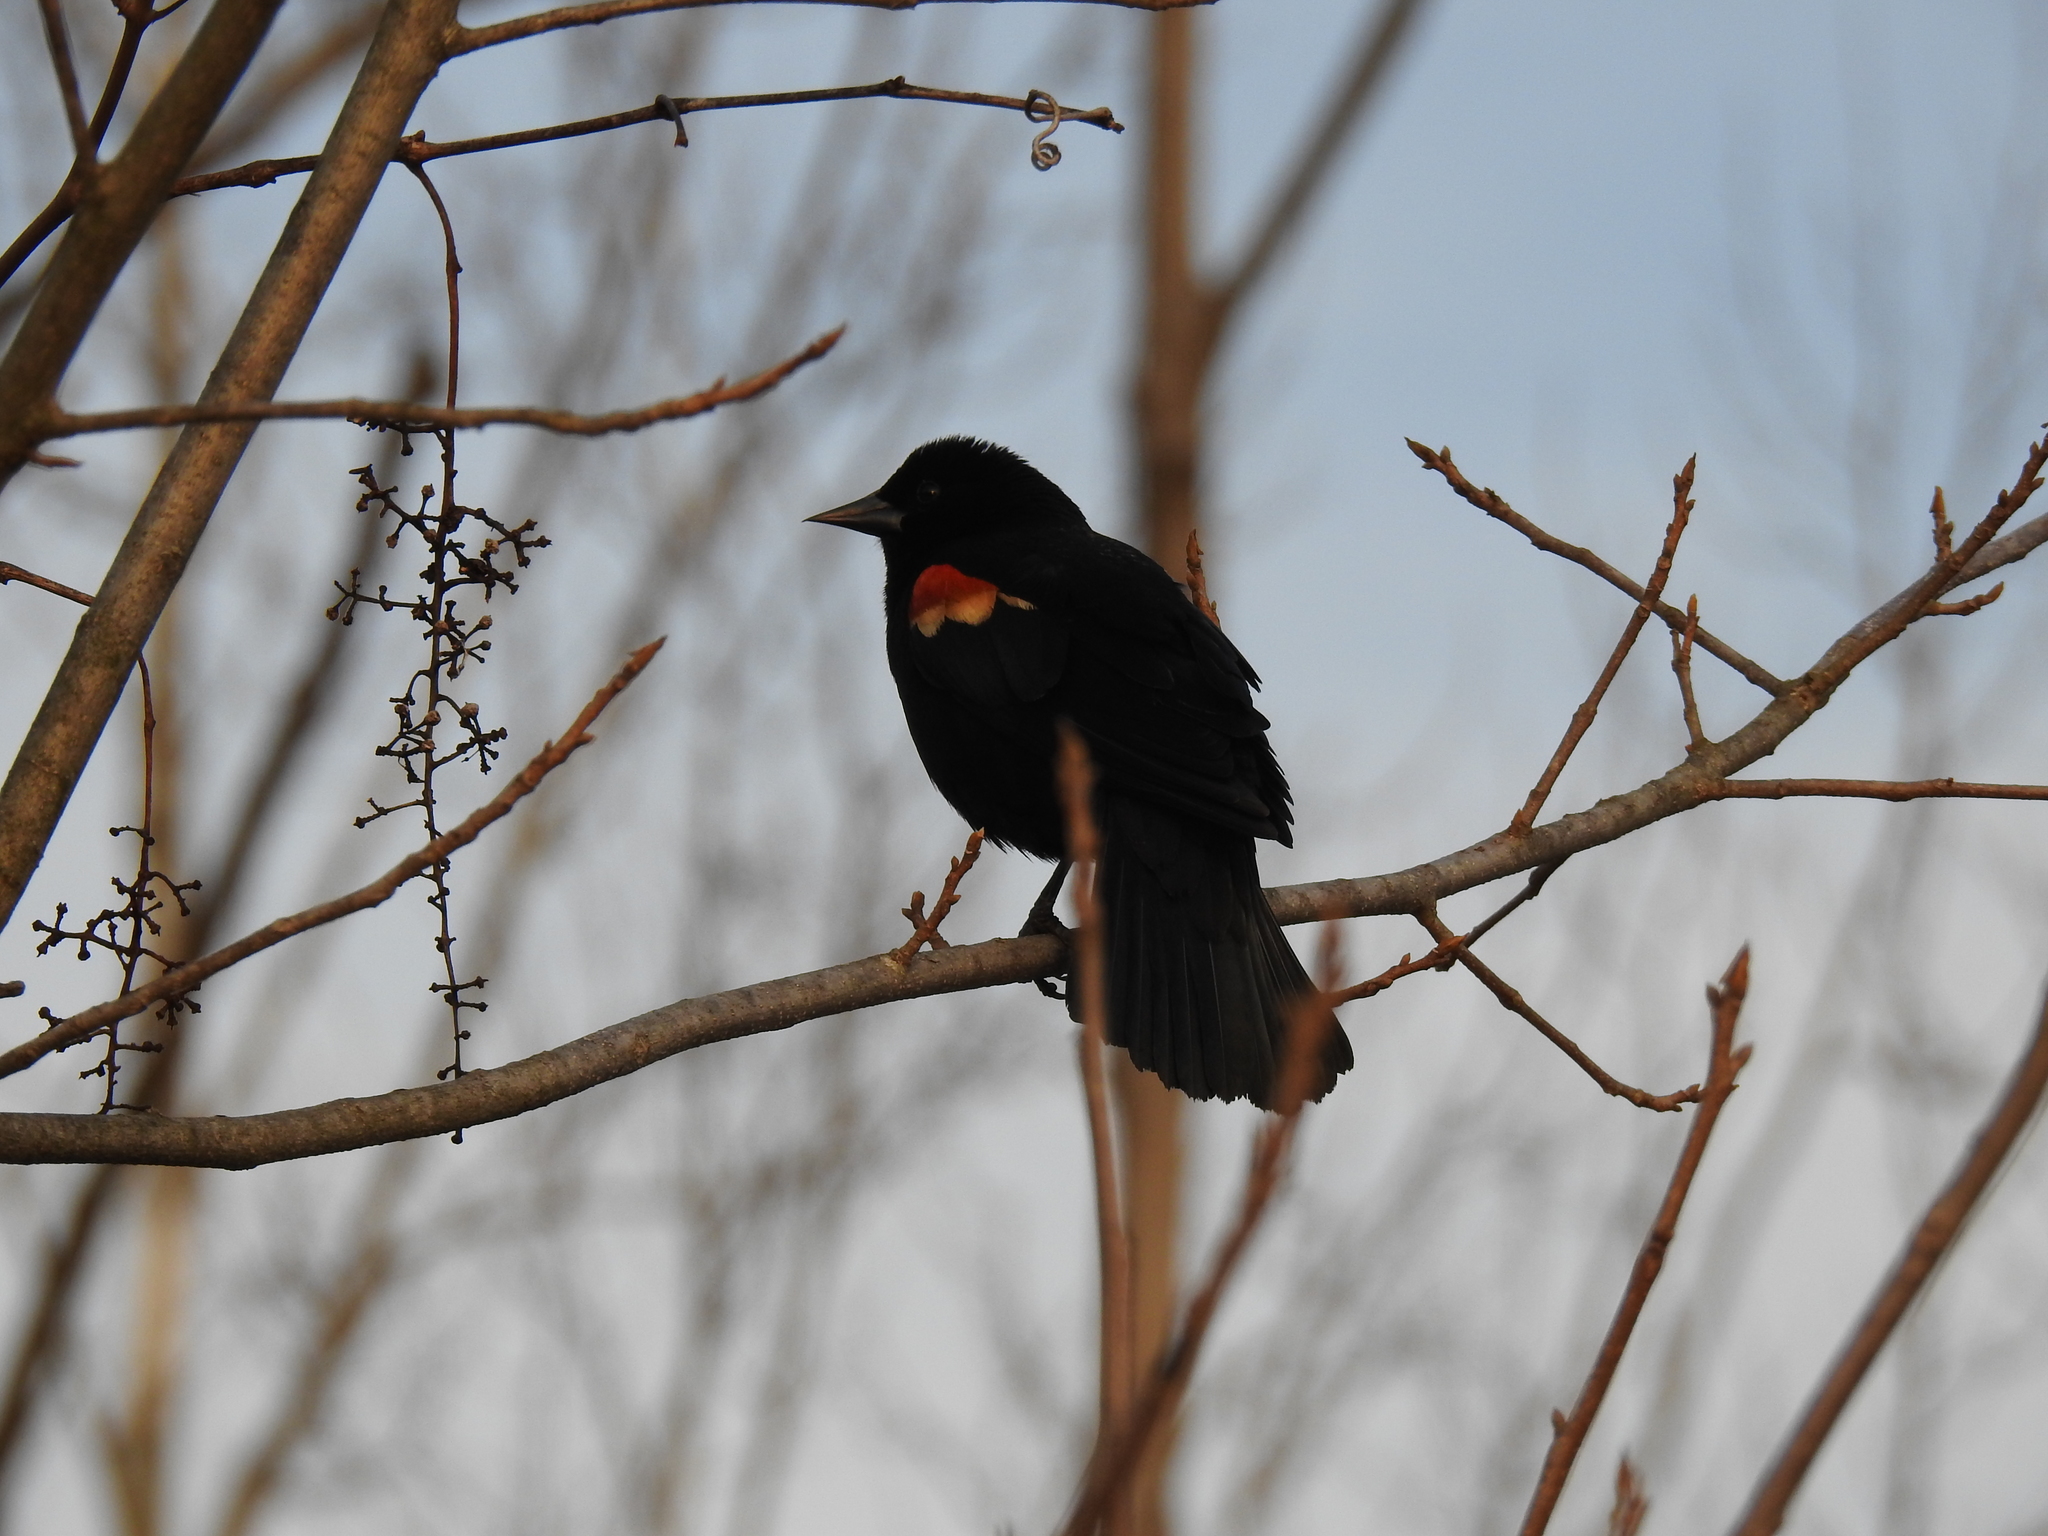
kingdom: Animalia
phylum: Chordata
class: Aves
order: Passeriformes
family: Icteridae
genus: Agelaius
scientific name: Agelaius phoeniceus
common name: Red-winged blackbird
